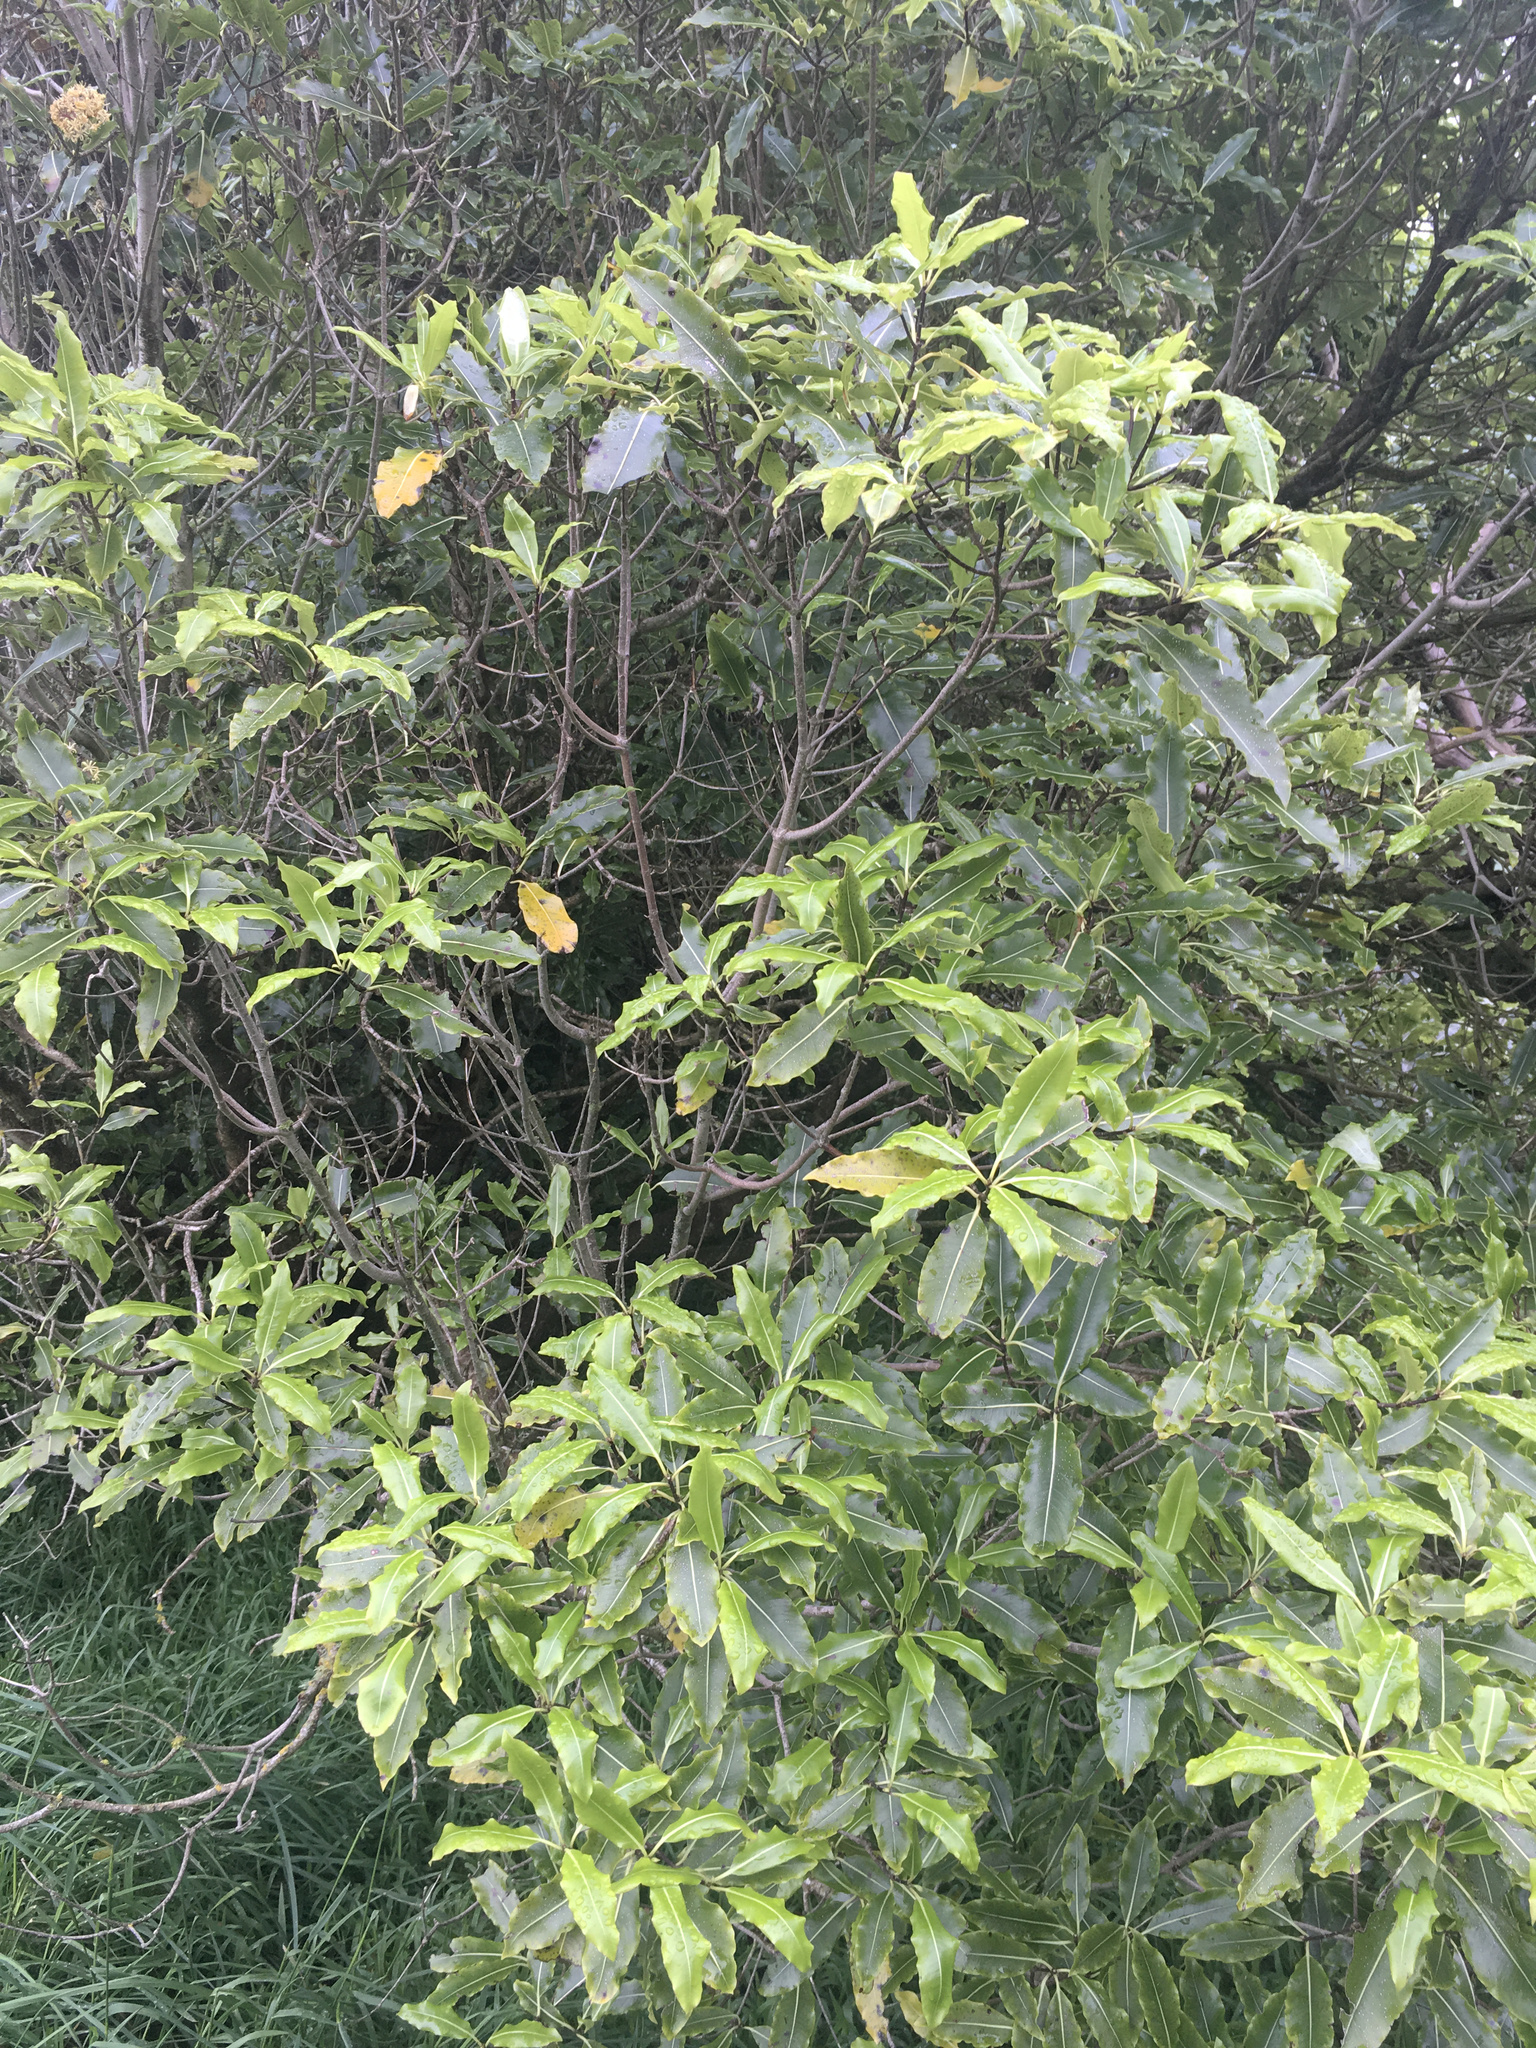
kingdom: Plantae
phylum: Tracheophyta
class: Magnoliopsida
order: Apiales
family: Pittosporaceae
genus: Pittosporum
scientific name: Pittosporum eugenioides
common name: Lemonwood
